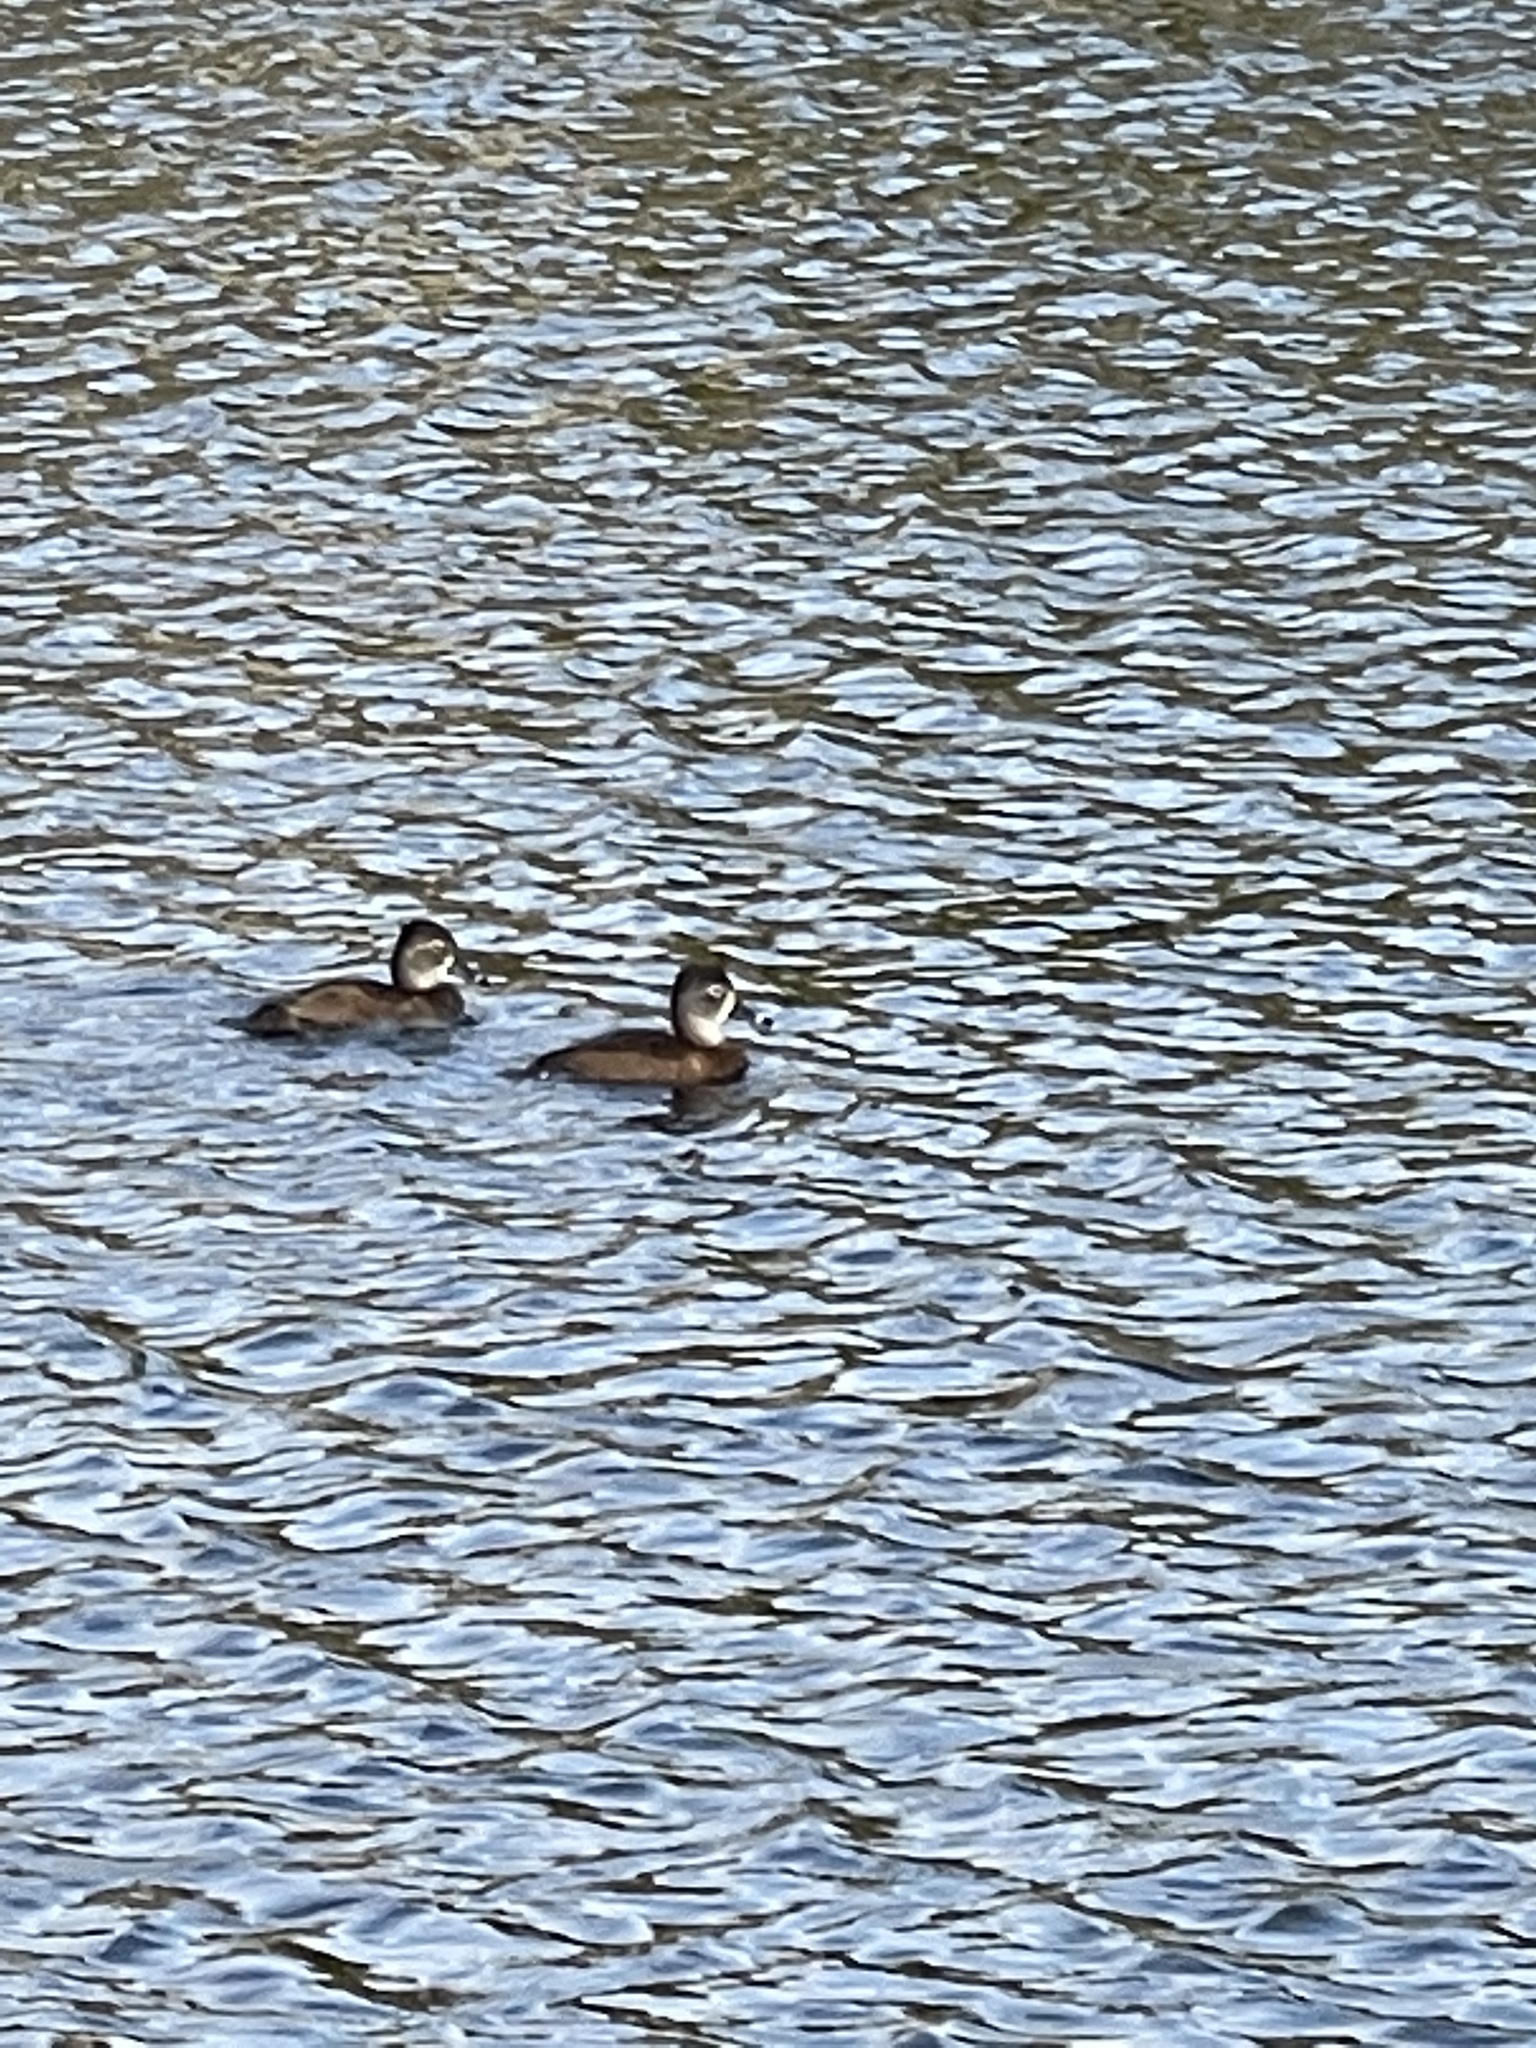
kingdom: Animalia
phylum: Chordata
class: Aves
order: Anseriformes
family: Anatidae
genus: Aythya
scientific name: Aythya collaris
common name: Ring-necked duck
